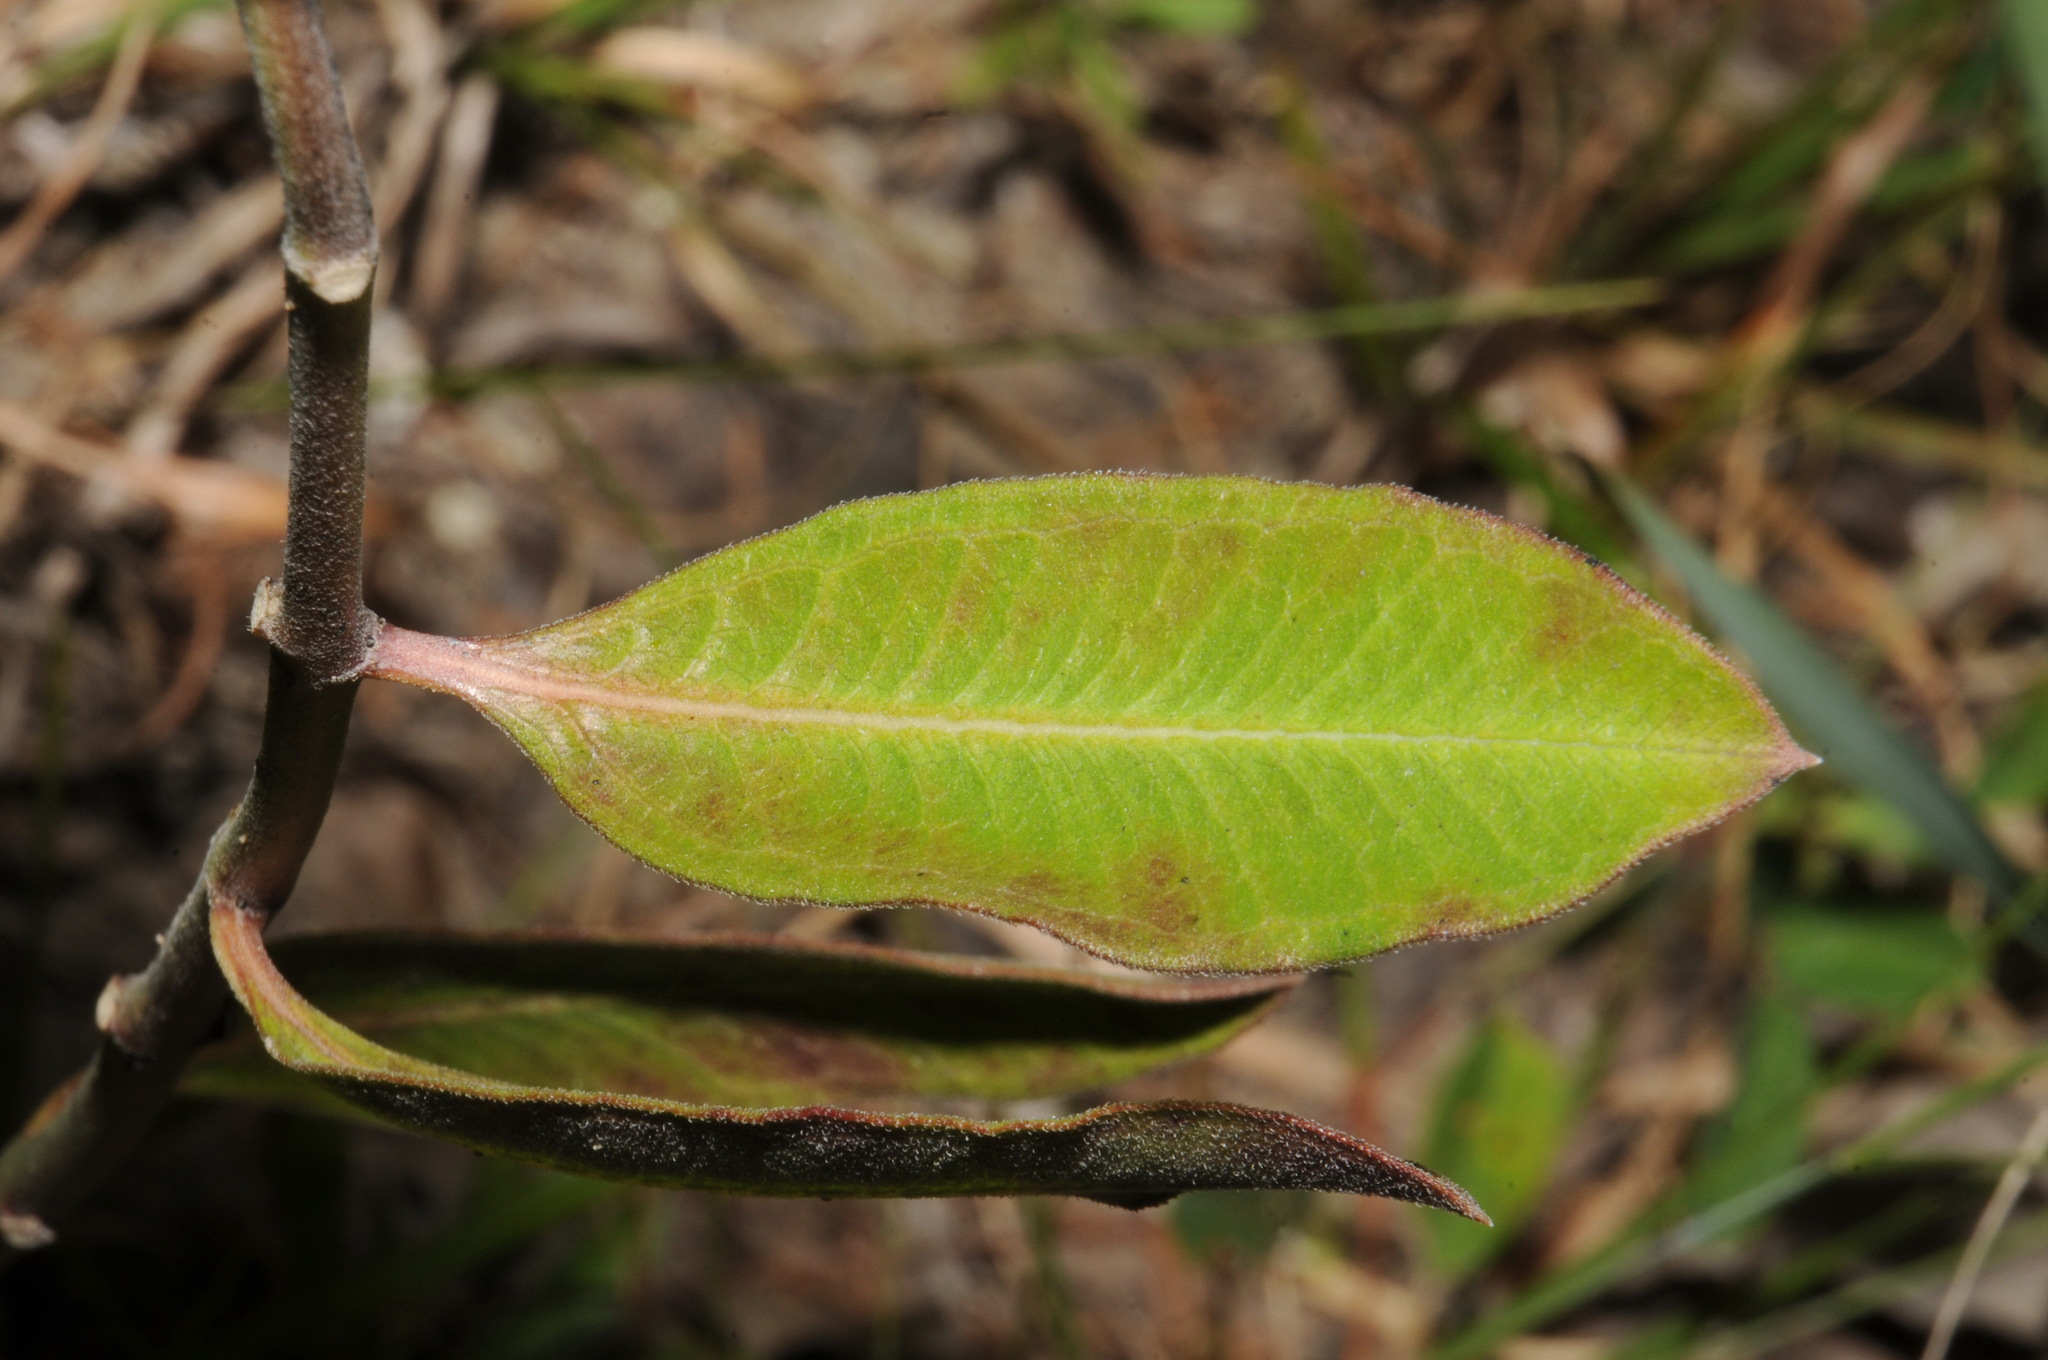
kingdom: Plantae
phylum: Tracheophyta
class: Magnoliopsida
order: Gentianales
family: Apocynaceae
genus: Asclepias
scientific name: Asclepias viridiflora
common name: Green comet milkweed
